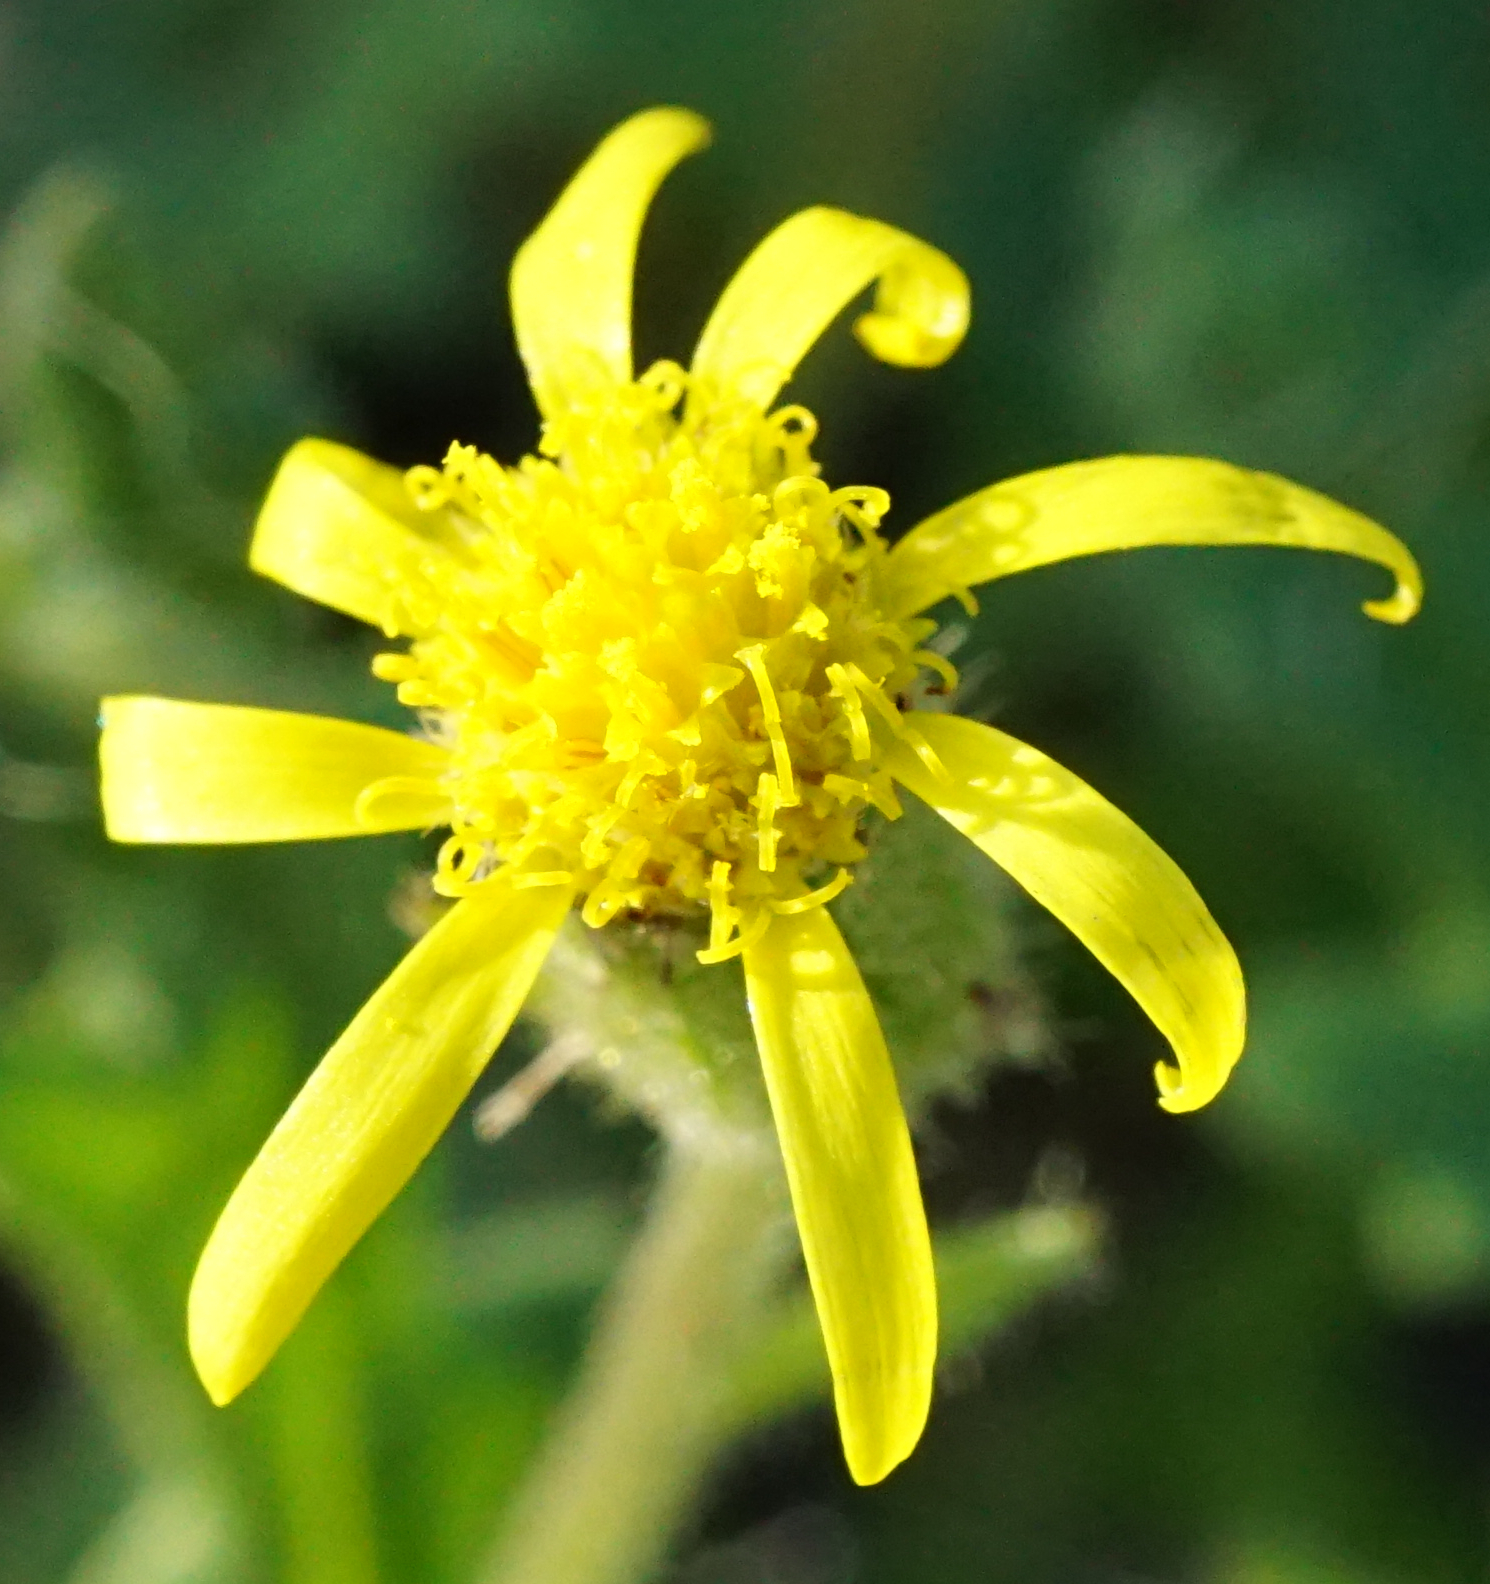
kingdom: Plantae
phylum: Tracheophyta
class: Magnoliopsida
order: Asterales
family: Asteraceae
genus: Senecio
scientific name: Senecio viscosus
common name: Sticky groundsel
